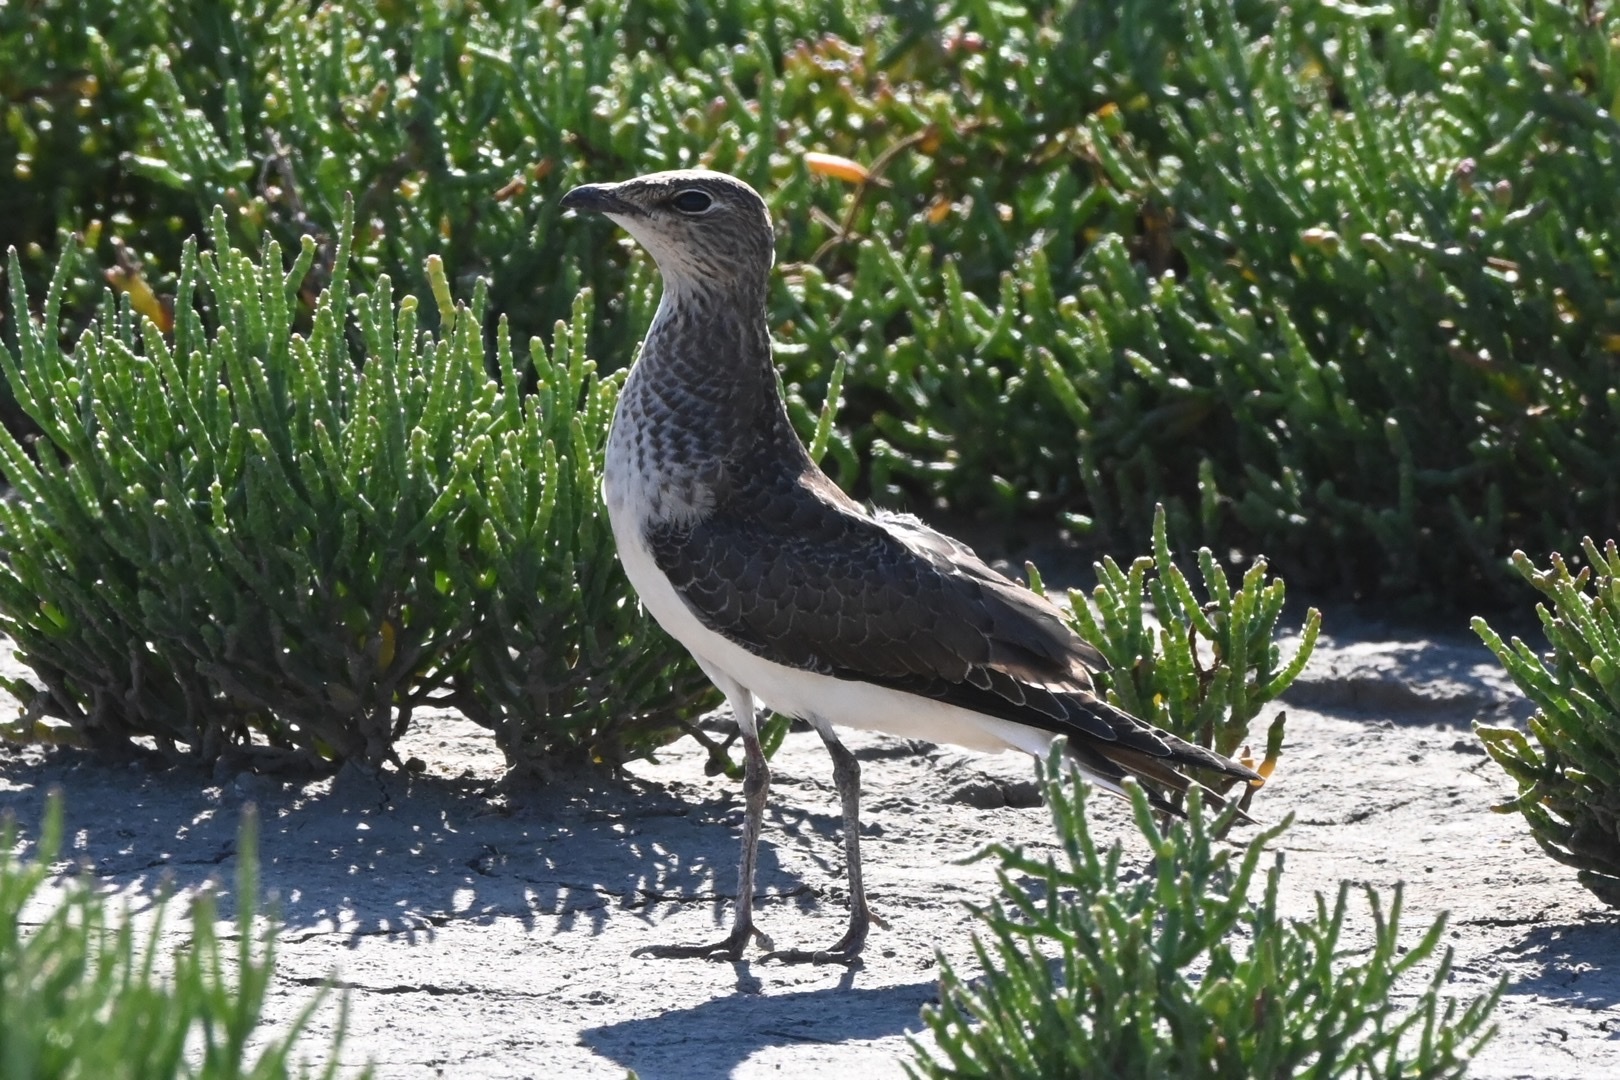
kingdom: Animalia
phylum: Chordata
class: Aves
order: Charadriiformes
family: Glareolidae
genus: Glareola
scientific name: Glareola nordmanni
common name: Black-winged pratincole
